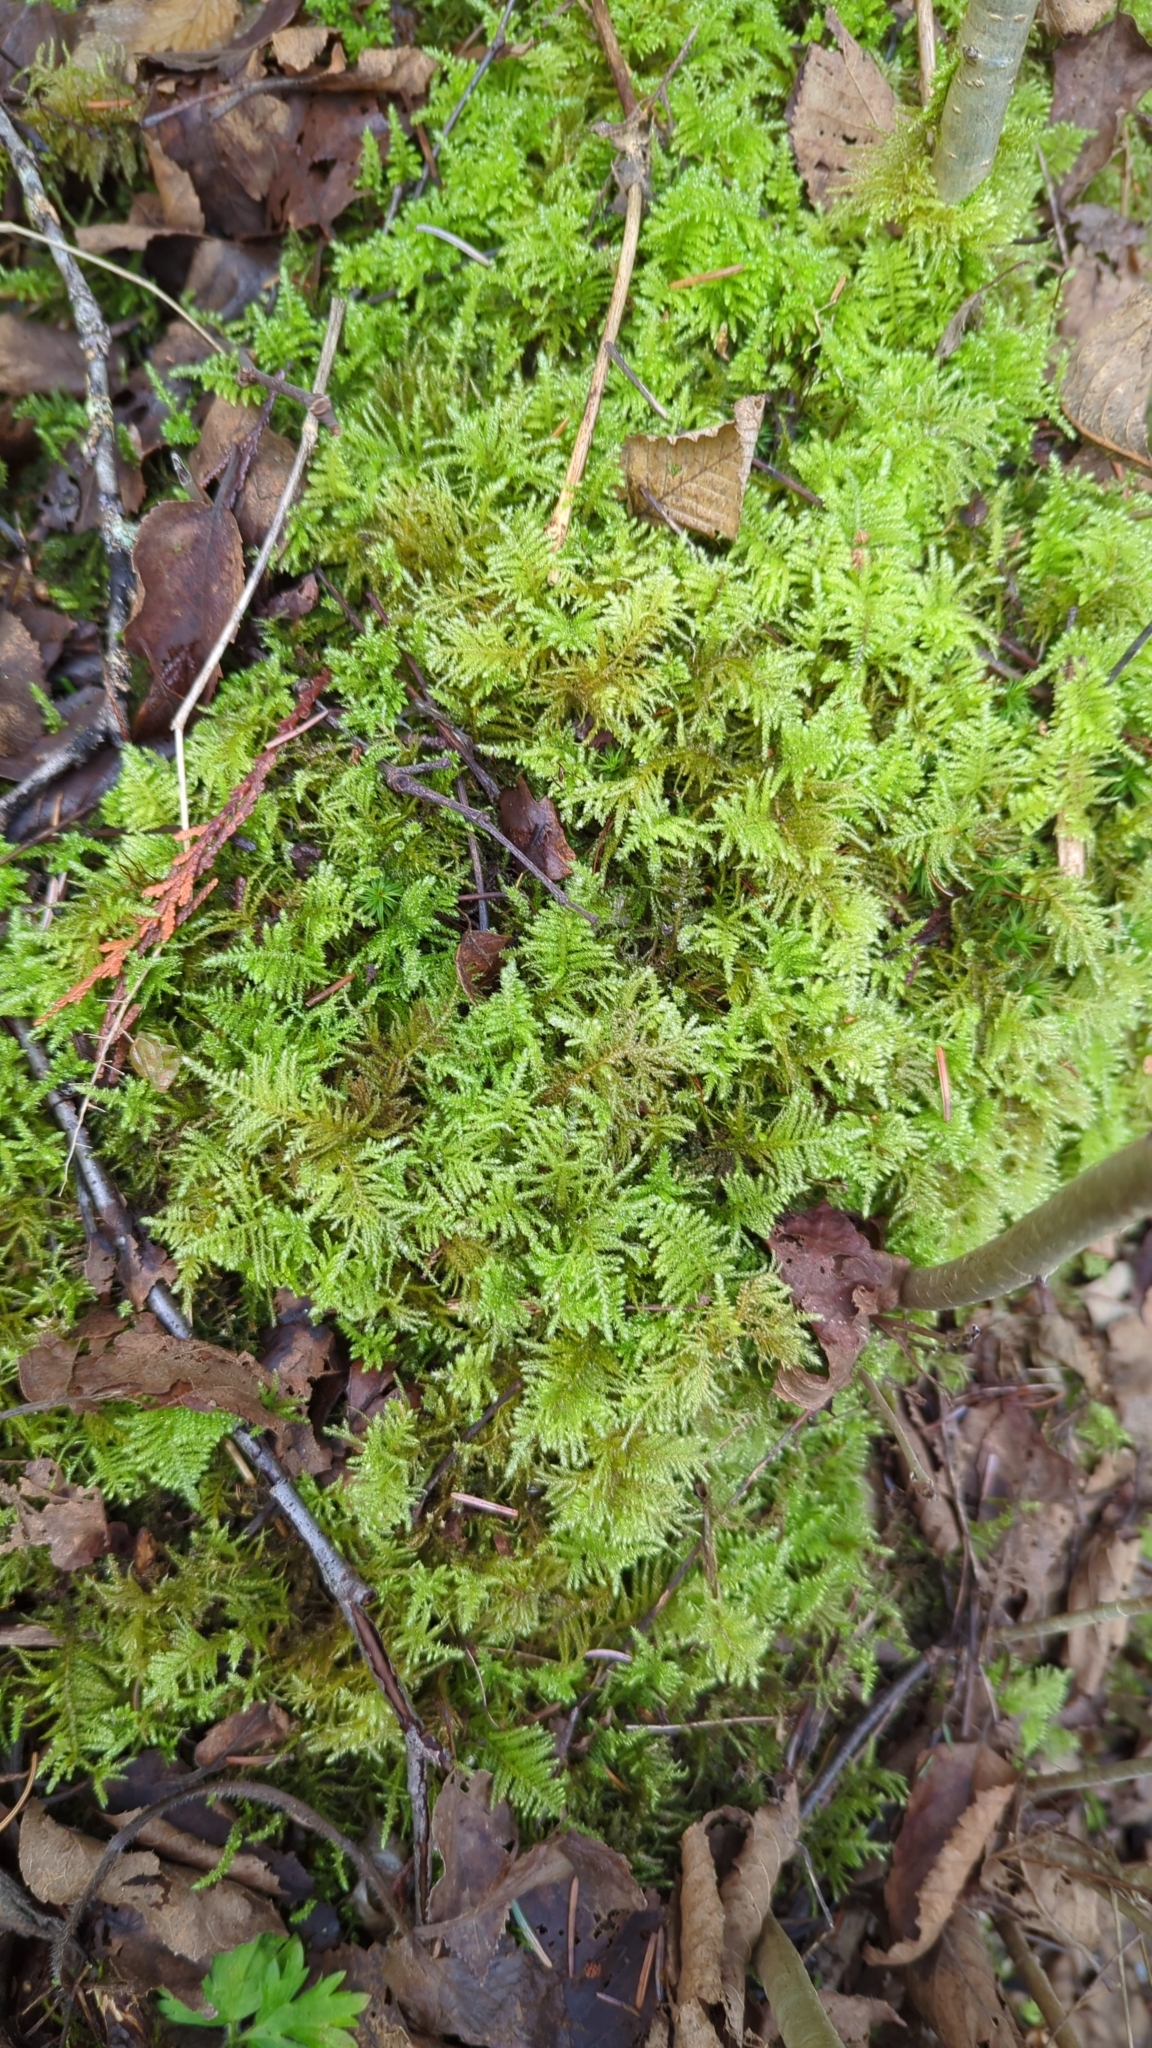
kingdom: Plantae
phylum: Bryophyta
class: Bryopsida
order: Hypnales
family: Brachytheciaceae
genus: Kindbergia
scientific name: Kindbergia oregana
